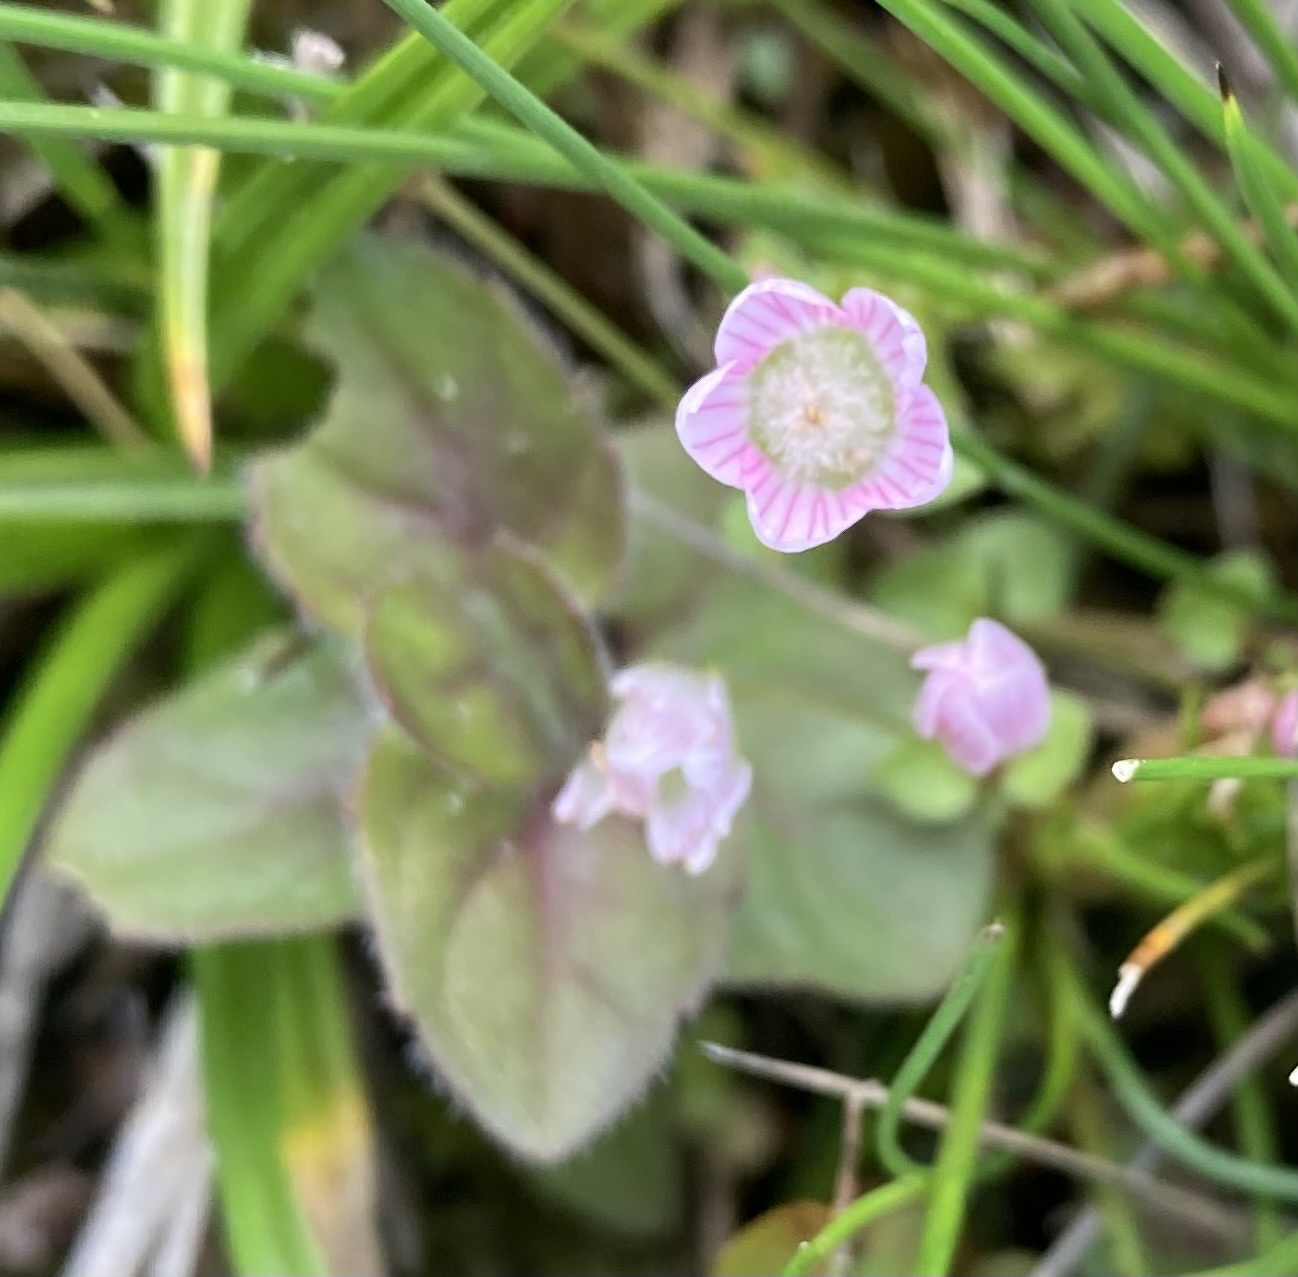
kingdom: Plantae
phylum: Tracheophyta
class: Magnoliopsida
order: Ericales
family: Primulaceae
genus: Lysimachia
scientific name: Lysimachia tenella
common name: European bog pimpernel
